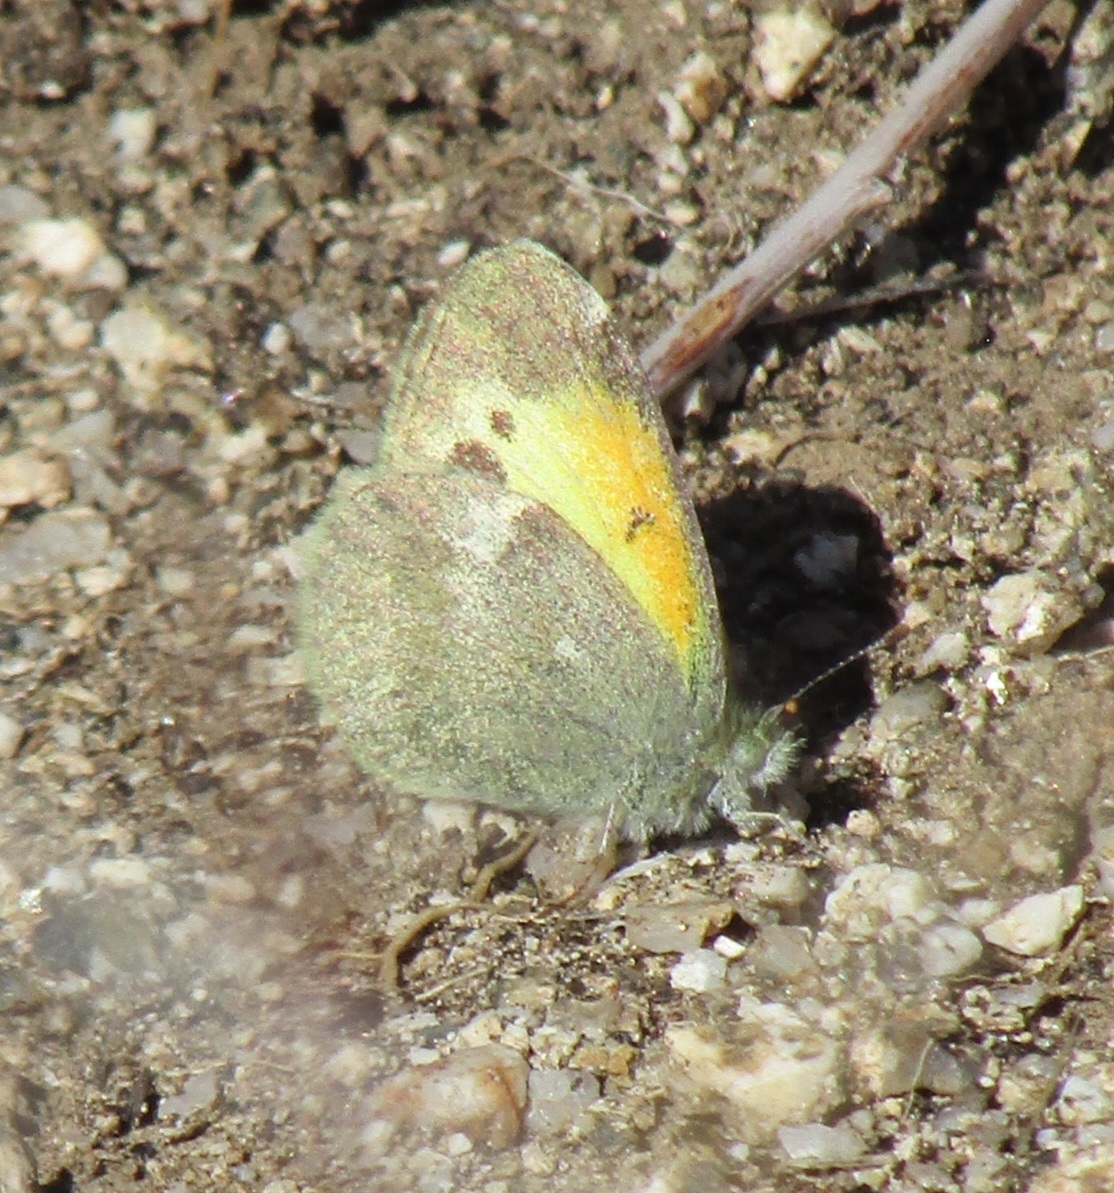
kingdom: Animalia
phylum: Arthropoda
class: Insecta
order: Lepidoptera
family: Pieridae
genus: Nathalis
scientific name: Nathalis iole
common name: Dainty sulphur
